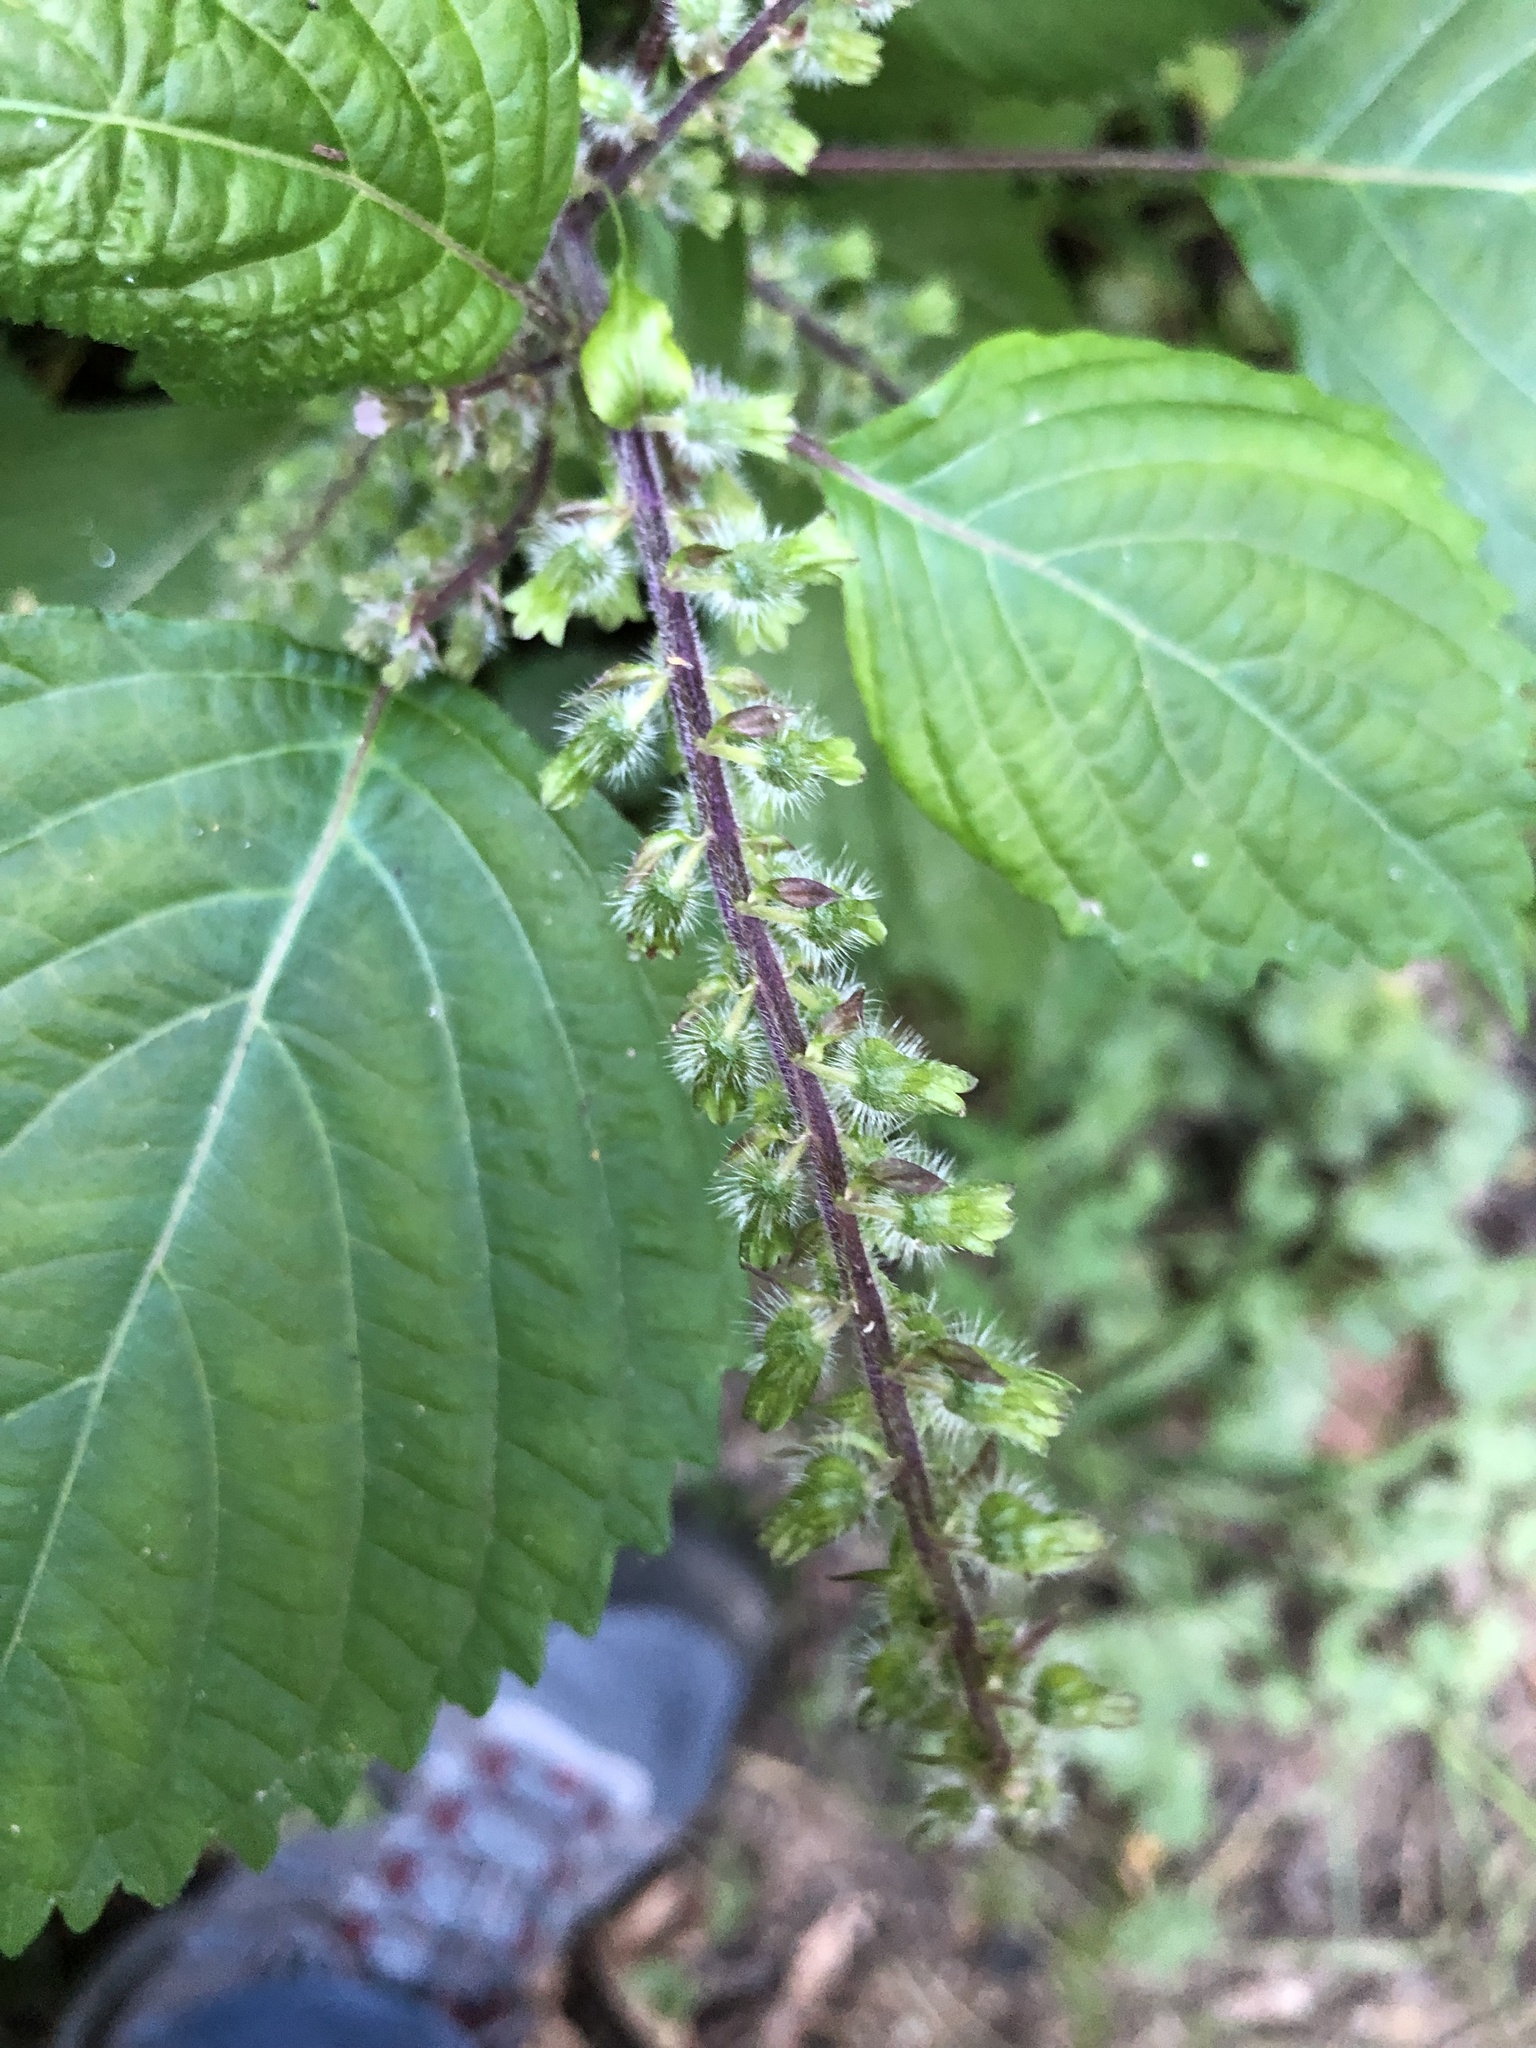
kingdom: Plantae
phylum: Tracheophyta
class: Magnoliopsida
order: Lamiales
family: Lamiaceae
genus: Perilla
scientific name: Perilla frutescens
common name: Perilla
